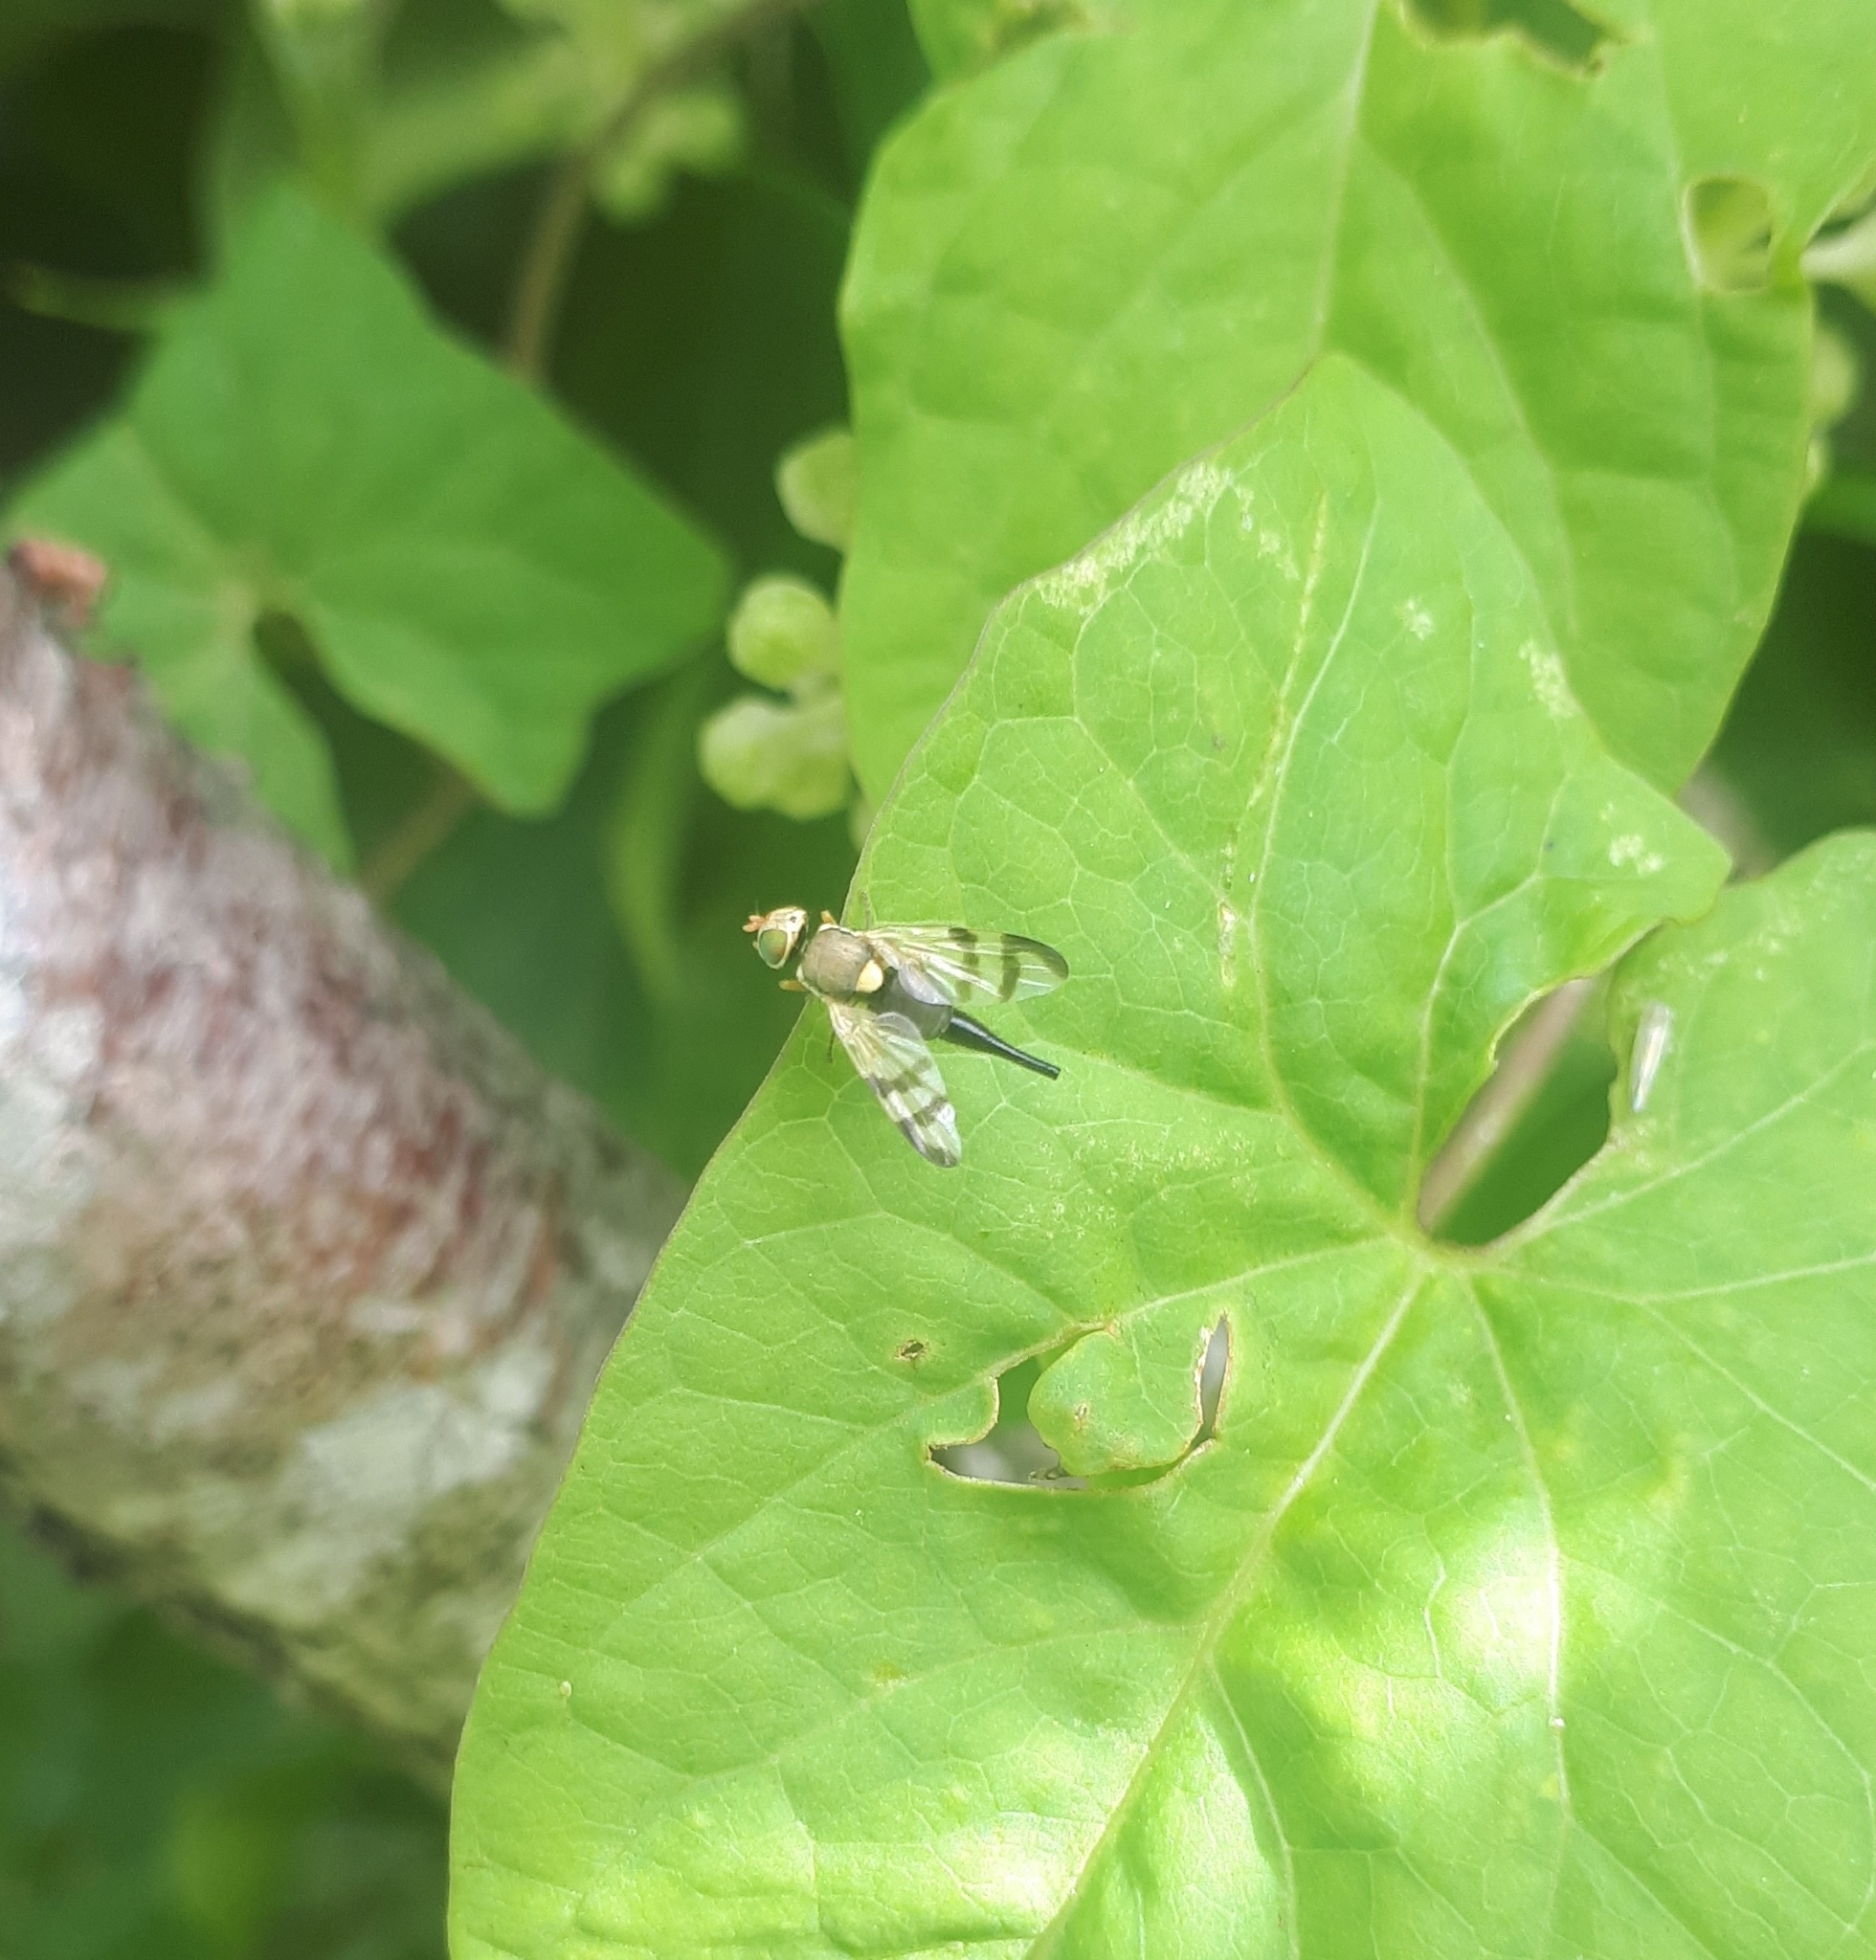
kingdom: Animalia
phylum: Arthropoda
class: Insecta
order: Diptera
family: Tephritidae
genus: Urophora
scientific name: Urophora stylata
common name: Fruit fly
